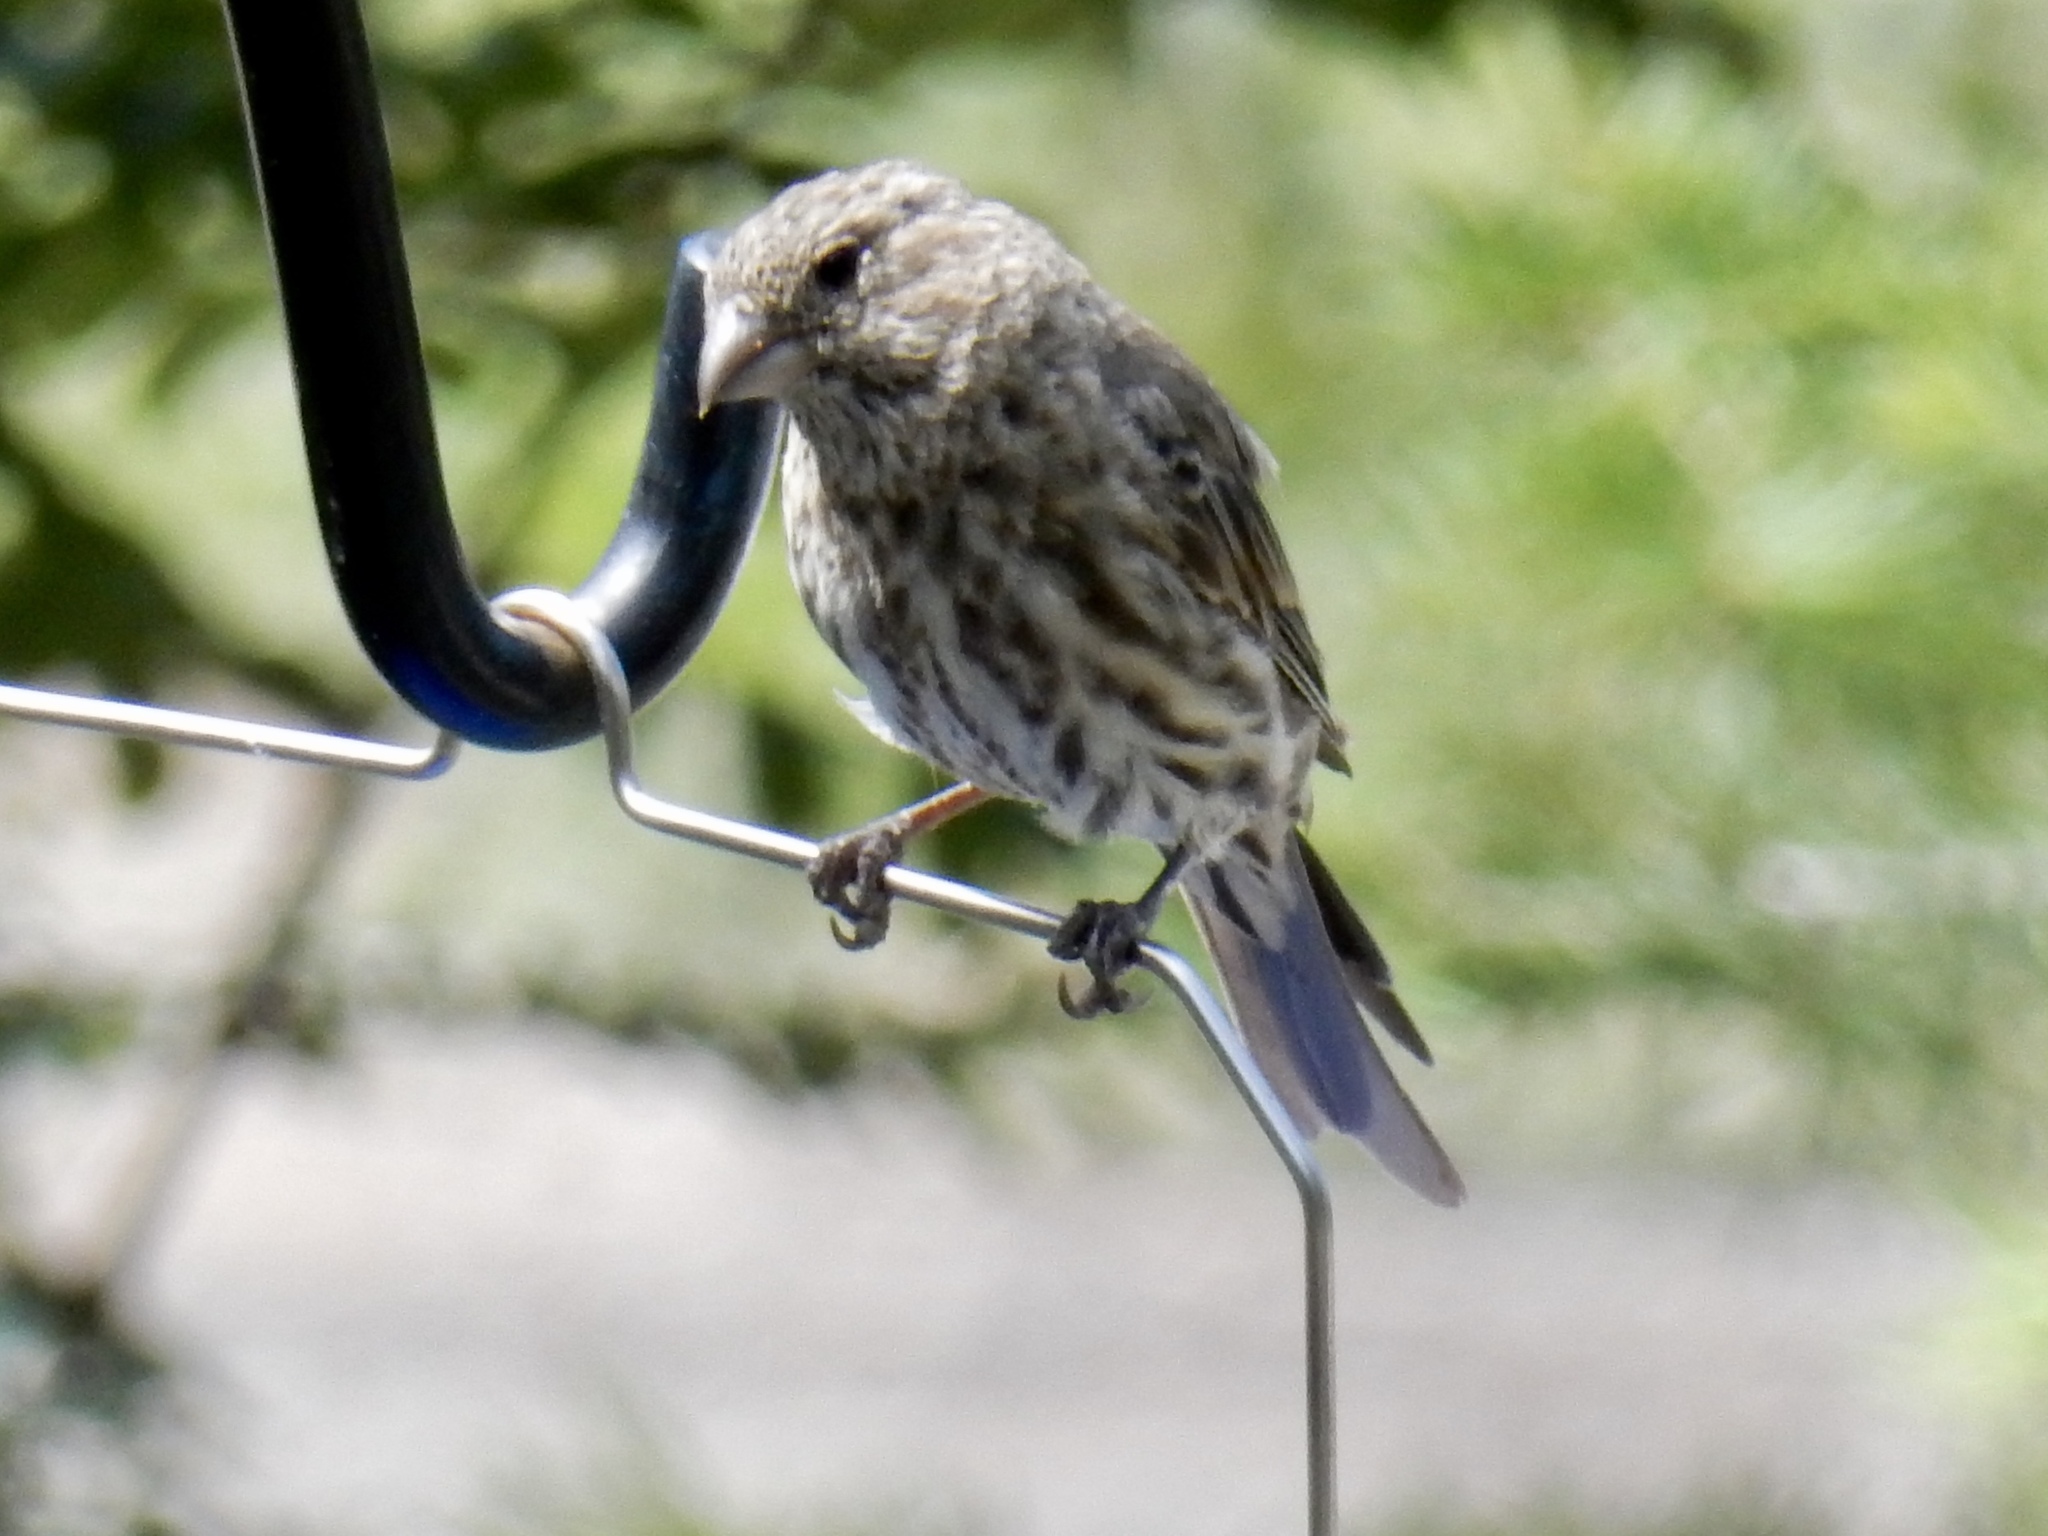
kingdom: Animalia
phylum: Chordata
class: Aves
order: Passeriformes
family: Fringillidae
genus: Haemorhous
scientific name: Haemorhous mexicanus
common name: House finch
